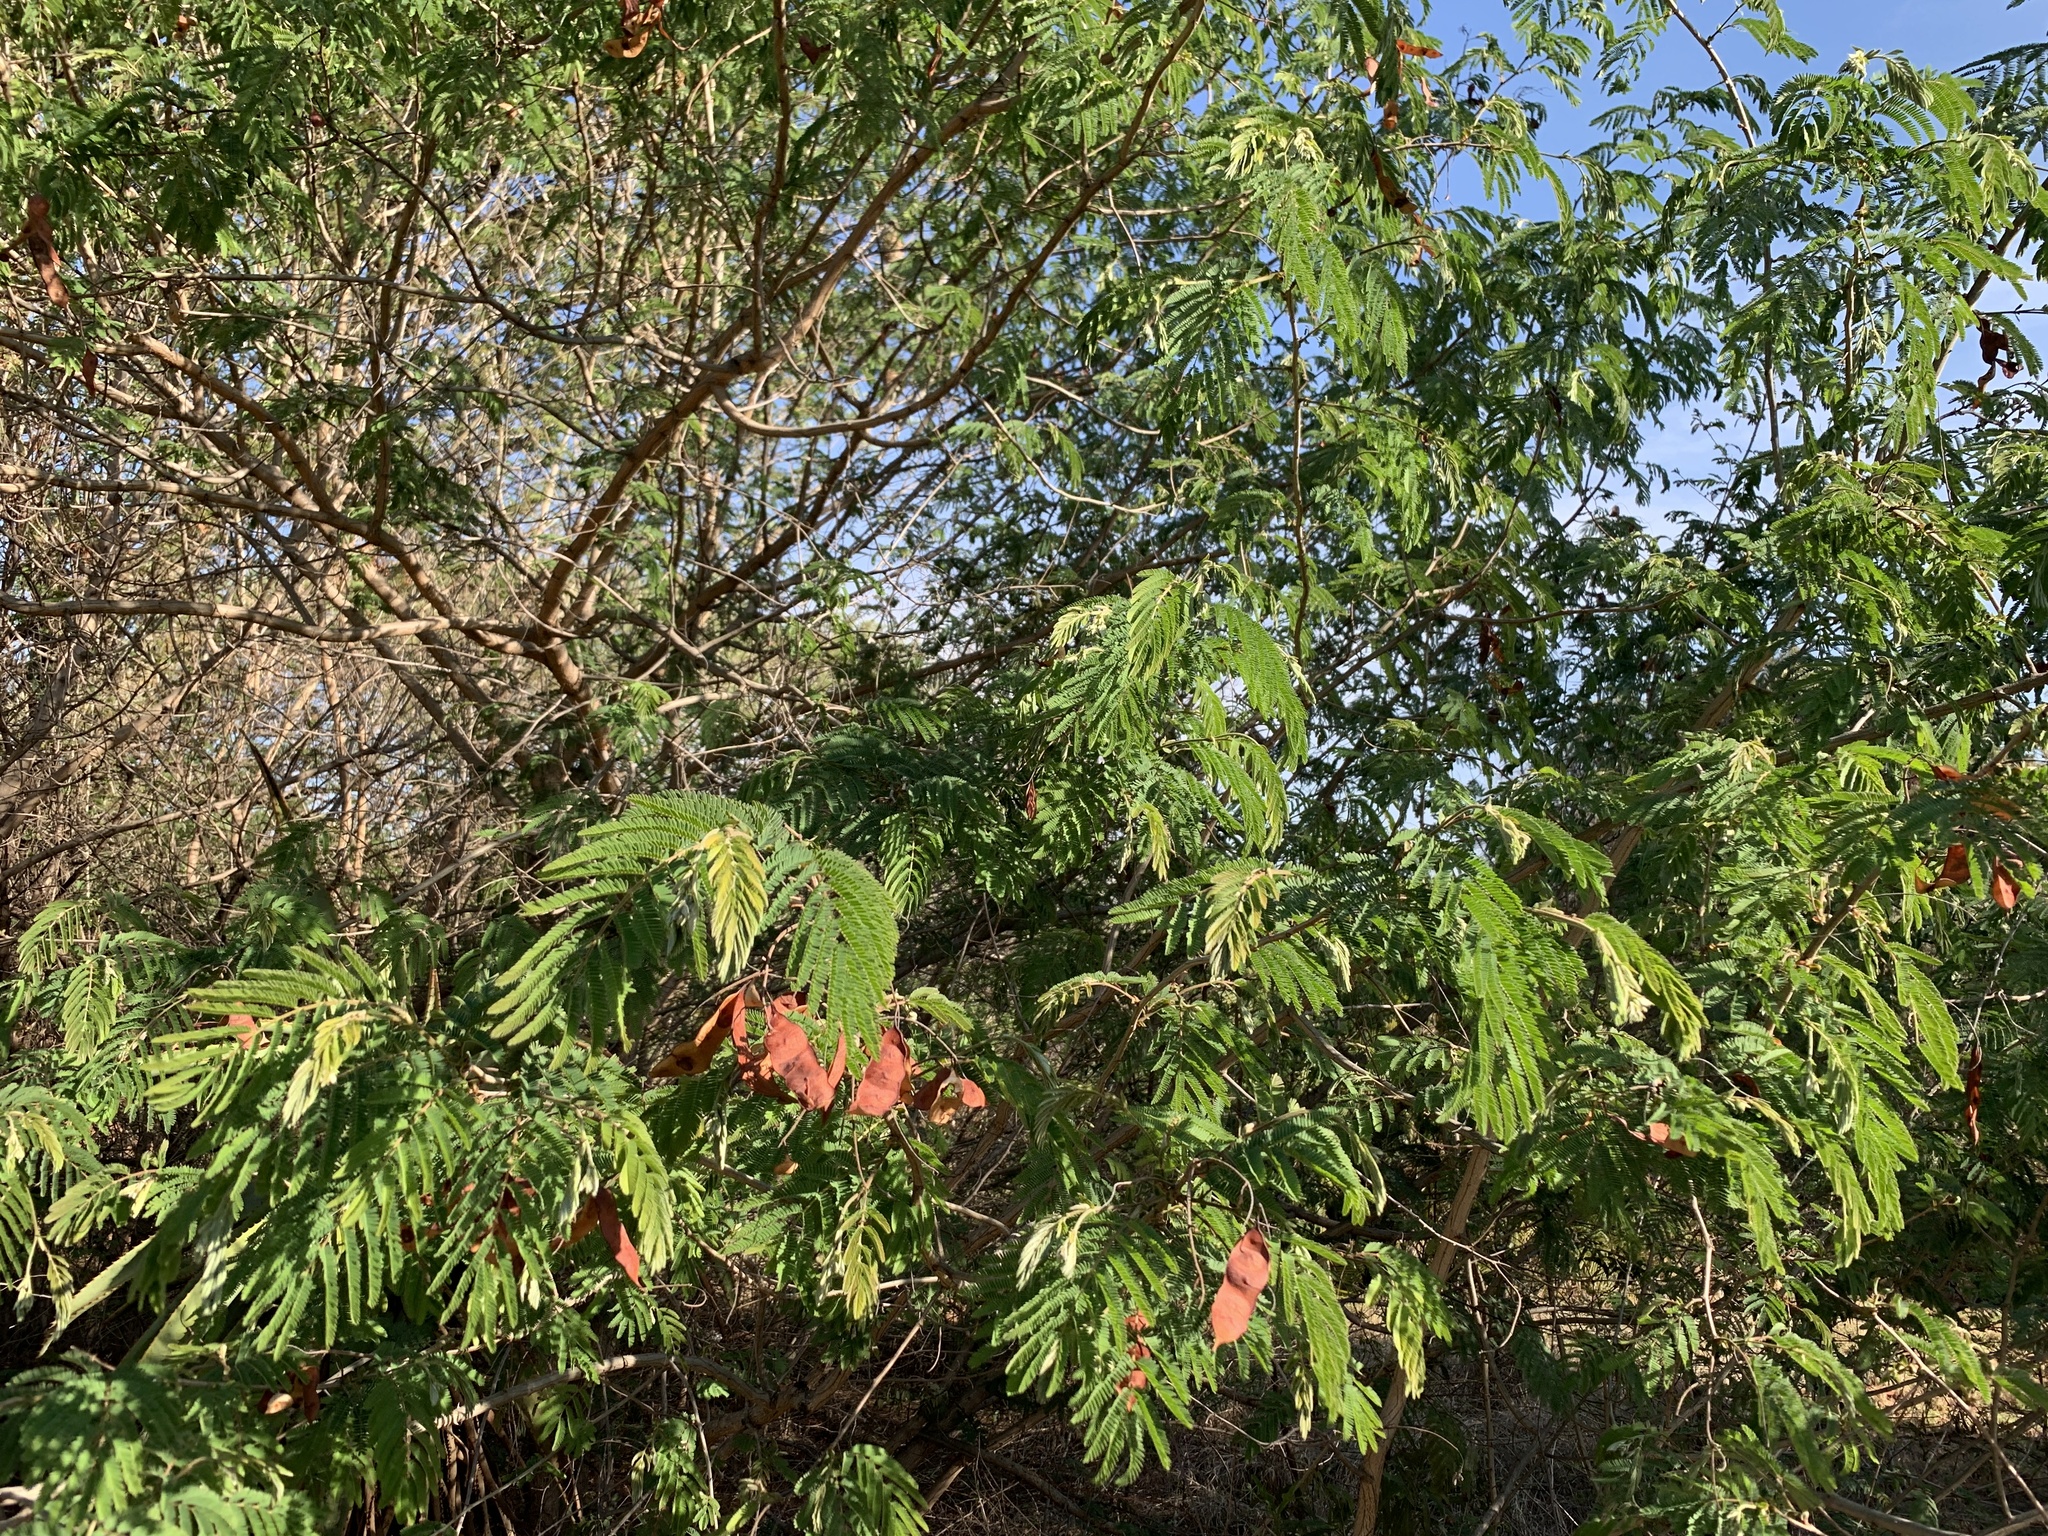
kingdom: Plantae
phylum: Tracheophyta
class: Magnoliopsida
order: Fabales
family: Fabaceae
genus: Senegalia
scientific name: Senegalia ataxacantha
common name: Flame acacia
